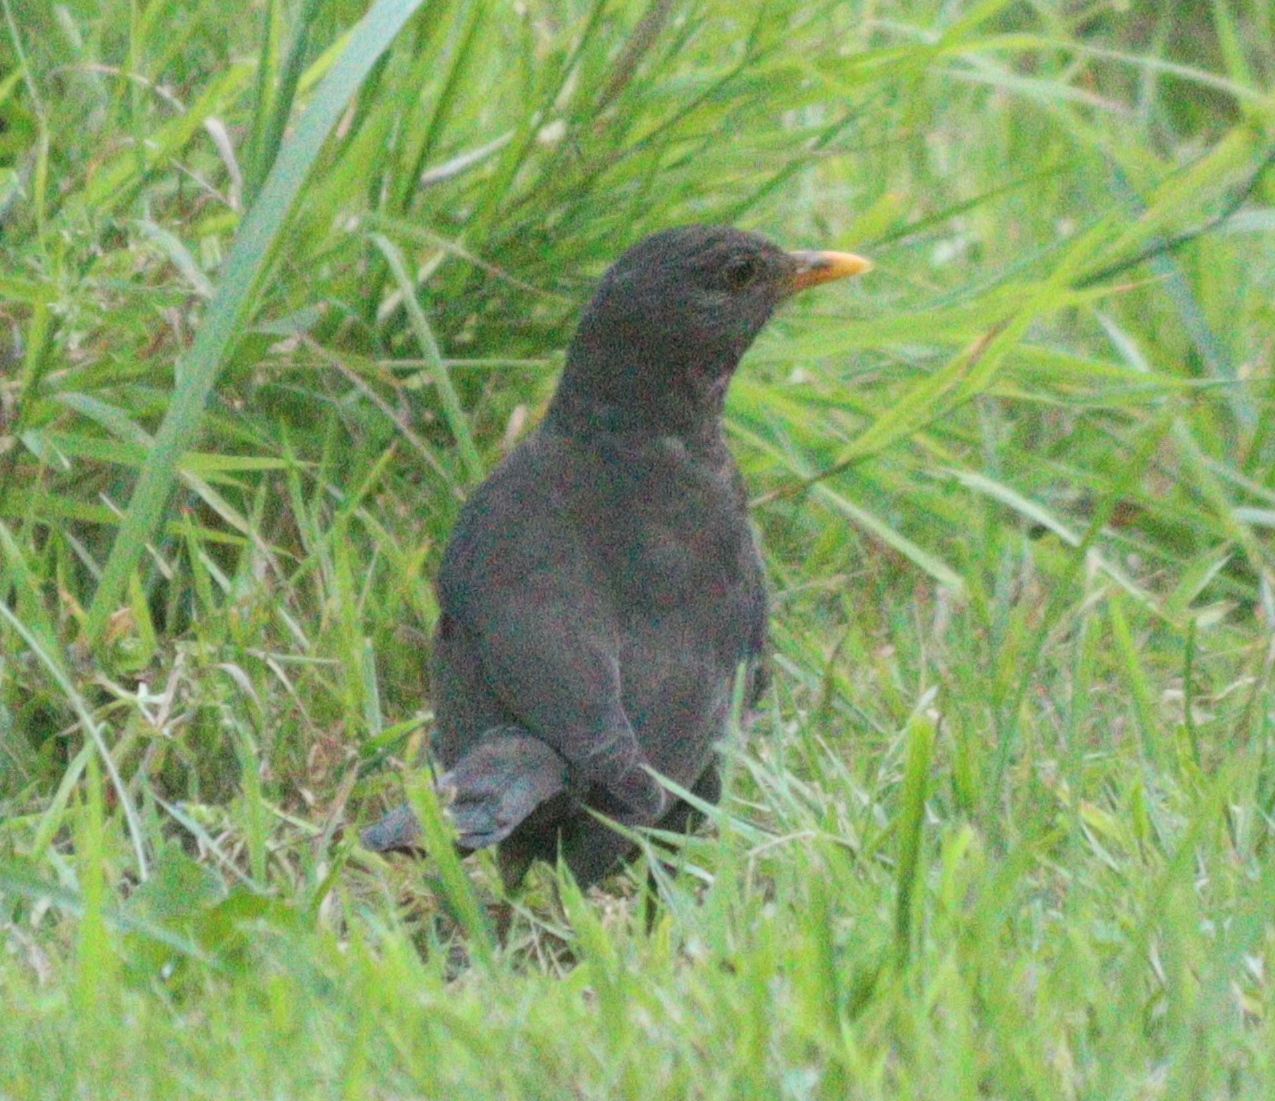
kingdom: Animalia
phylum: Chordata
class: Aves
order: Passeriformes
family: Turdidae
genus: Turdus
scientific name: Turdus merula
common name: Common blackbird
